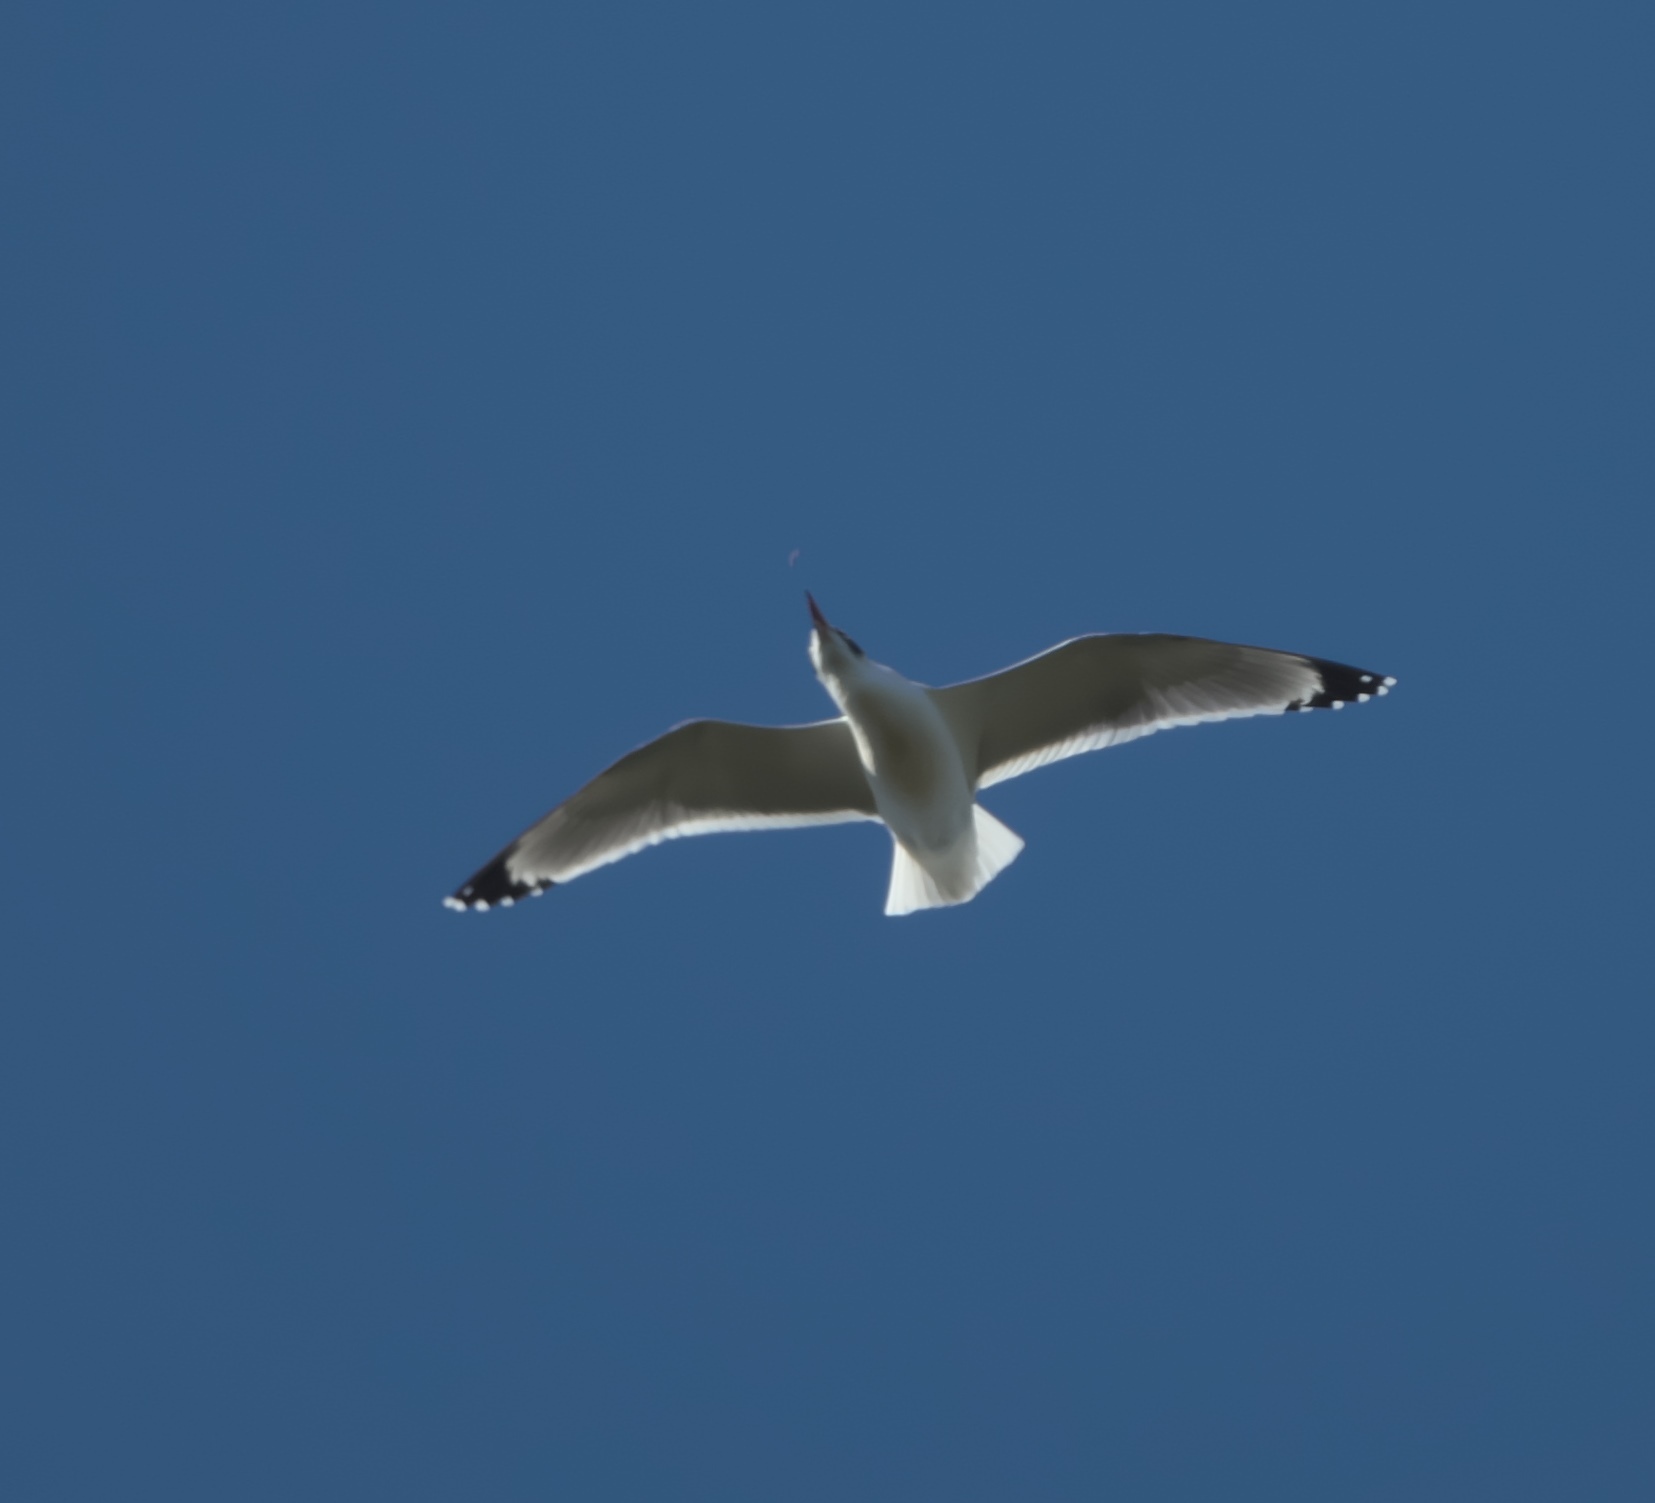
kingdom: Animalia
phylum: Chordata
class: Aves
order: Charadriiformes
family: Laridae
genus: Leucophaeus
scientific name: Leucophaeus pipixcan
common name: Franklin's gull
